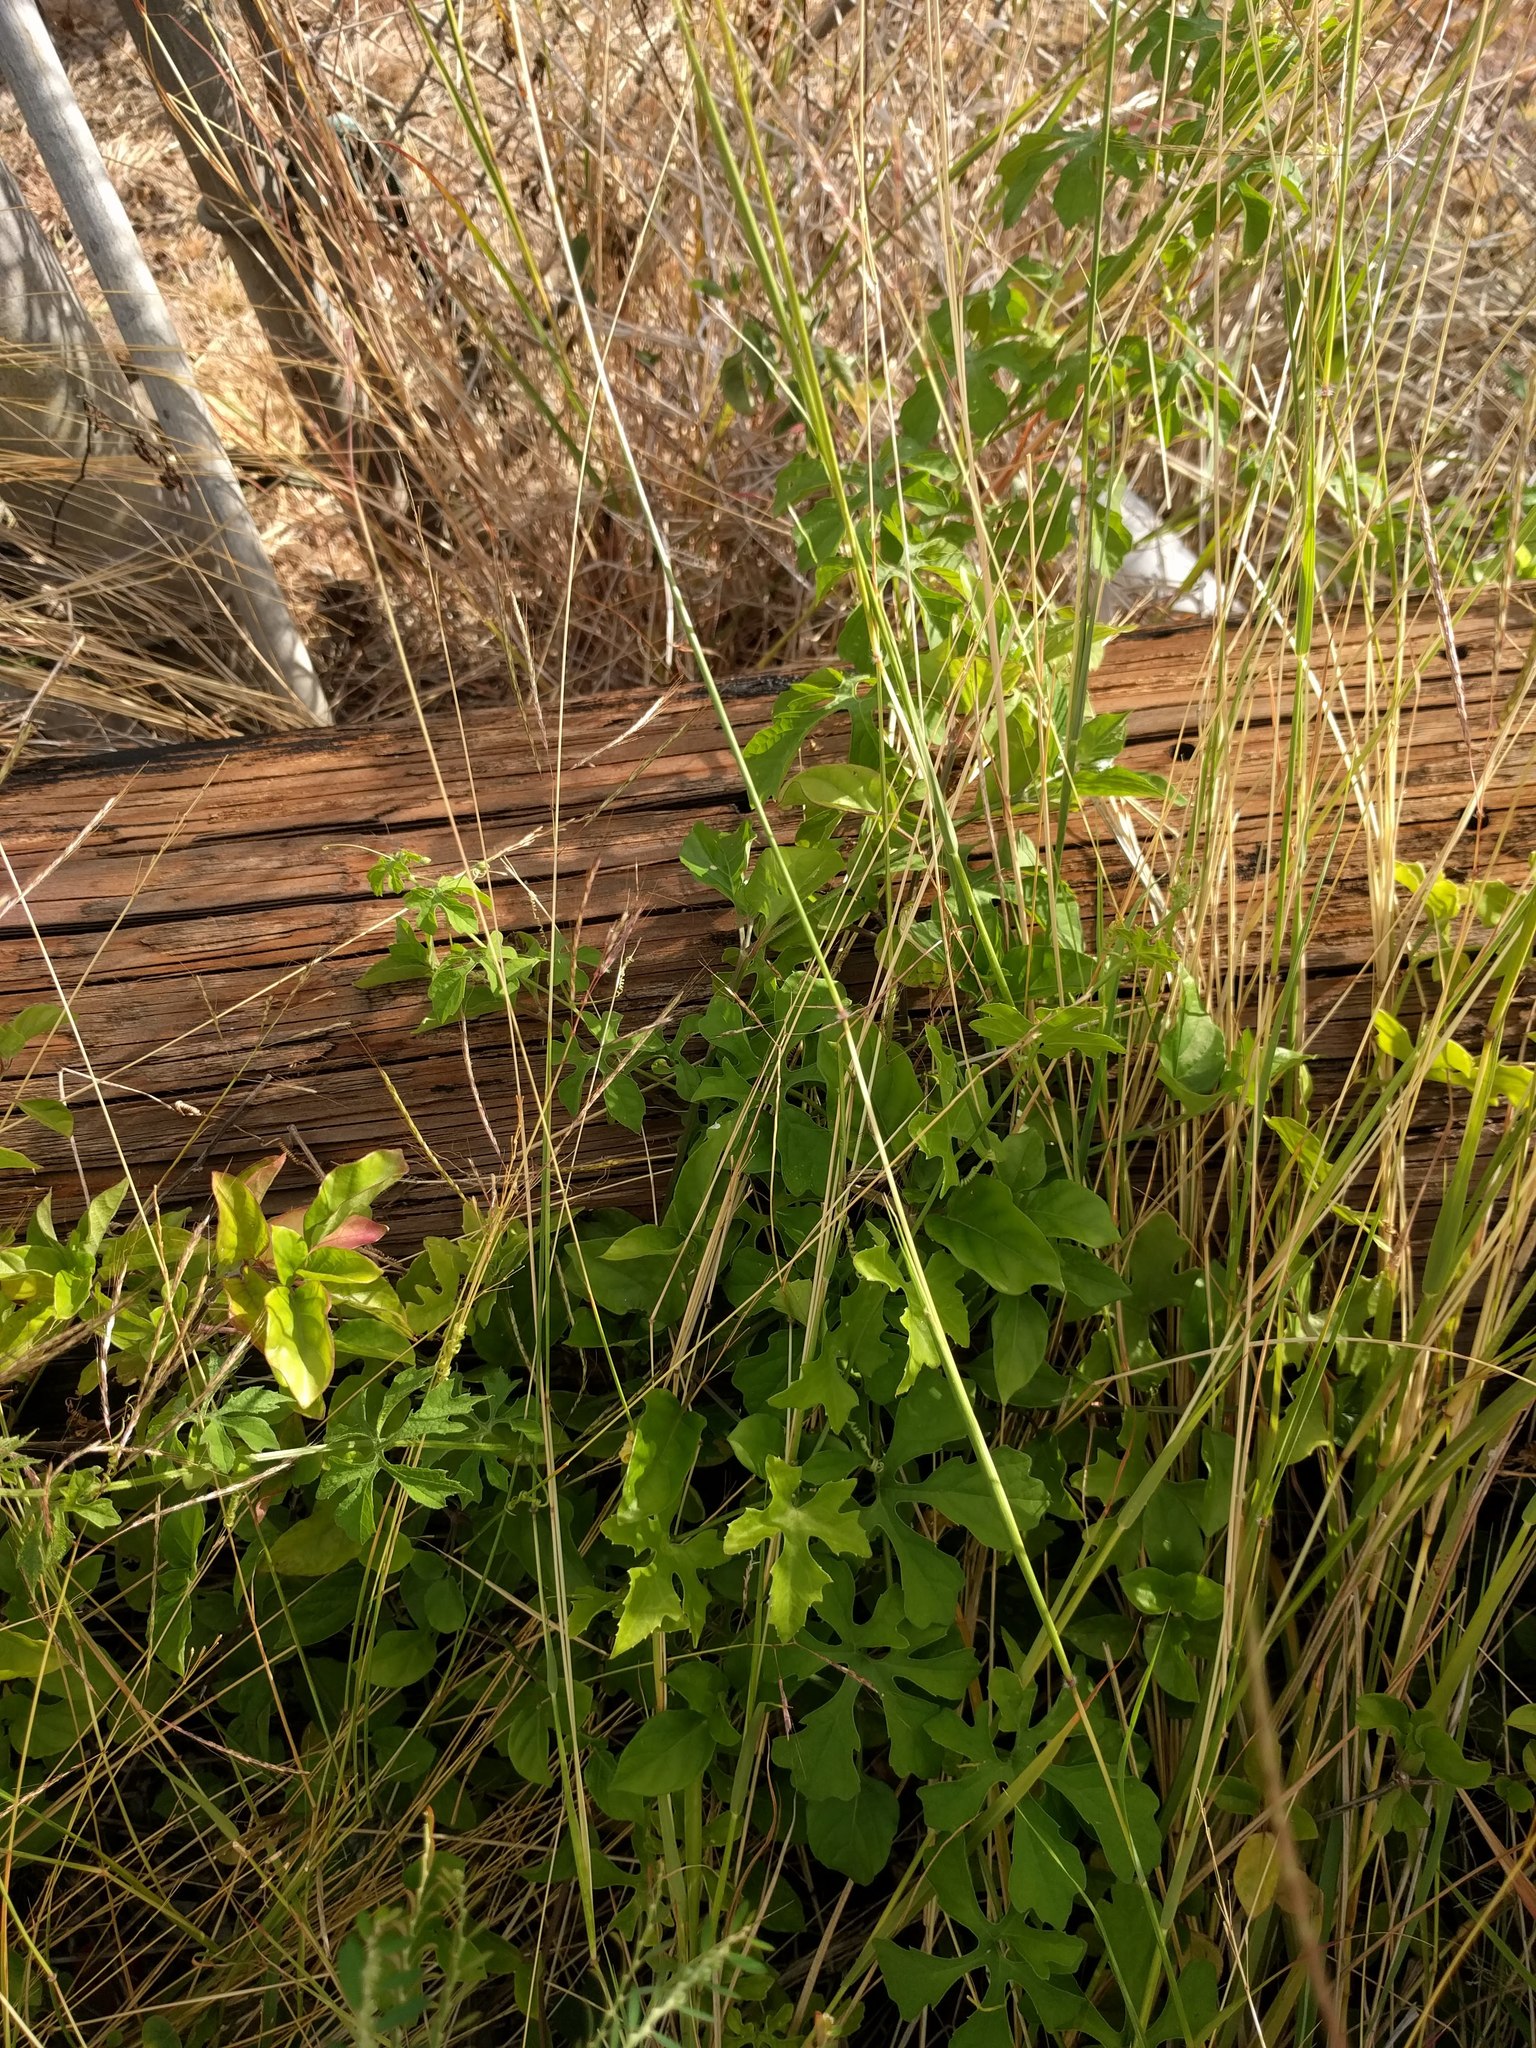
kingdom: Plantae
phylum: Tracheophyta
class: Magnoliopsida
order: Cucurbitales
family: Cucurbitaceae
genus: Momordica
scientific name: Momordica charantia
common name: Balsampear
